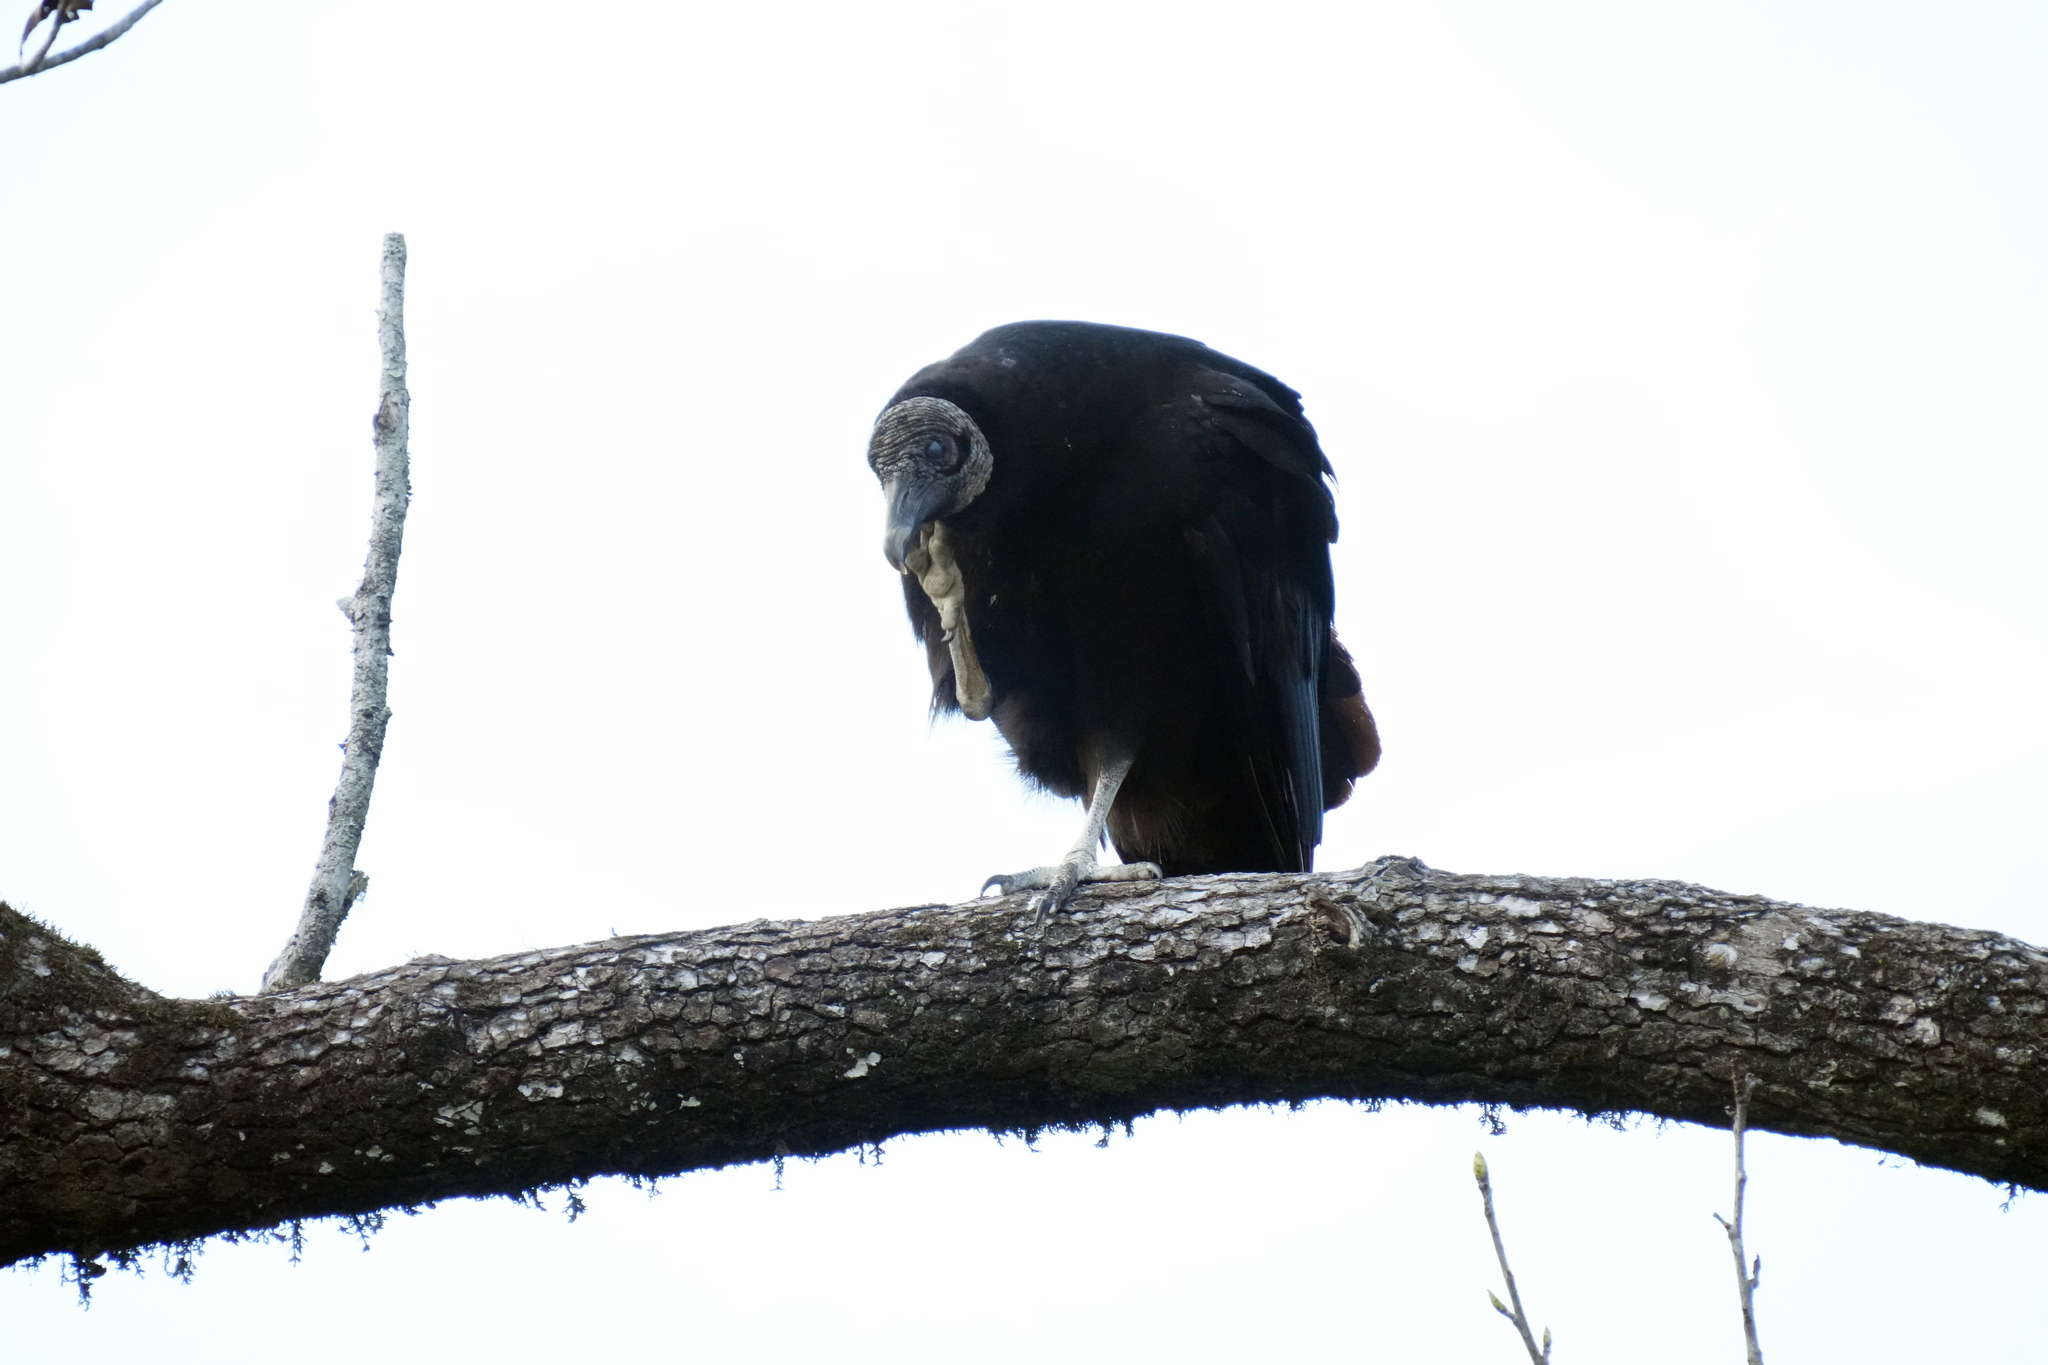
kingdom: Animalia
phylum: Chordata
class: Aves
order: Accipitriformes
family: Cathartidae
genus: Coragyps
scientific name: Coragyps atratus
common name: Black vulture
